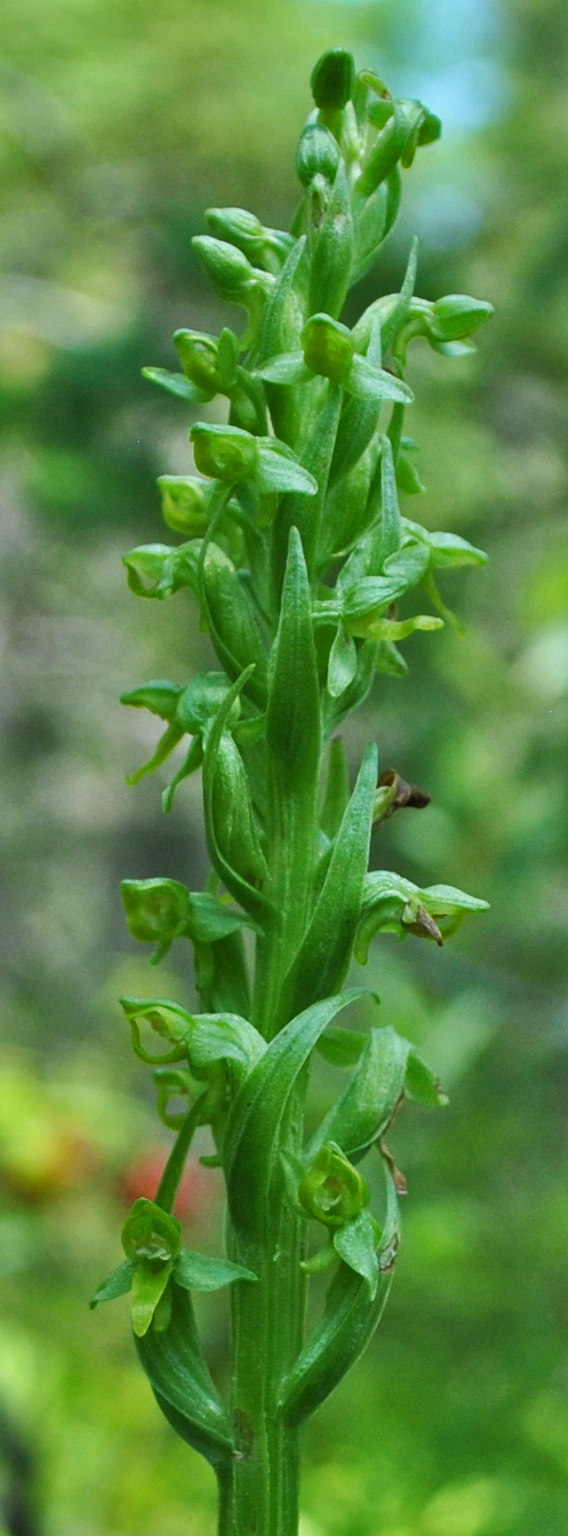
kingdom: Plantae
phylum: Tracheophyta
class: Liliopsida
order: Asparagales
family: Orchidaceae
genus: Platanthera
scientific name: Platanthera aquilonis
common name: Northern green orchid
